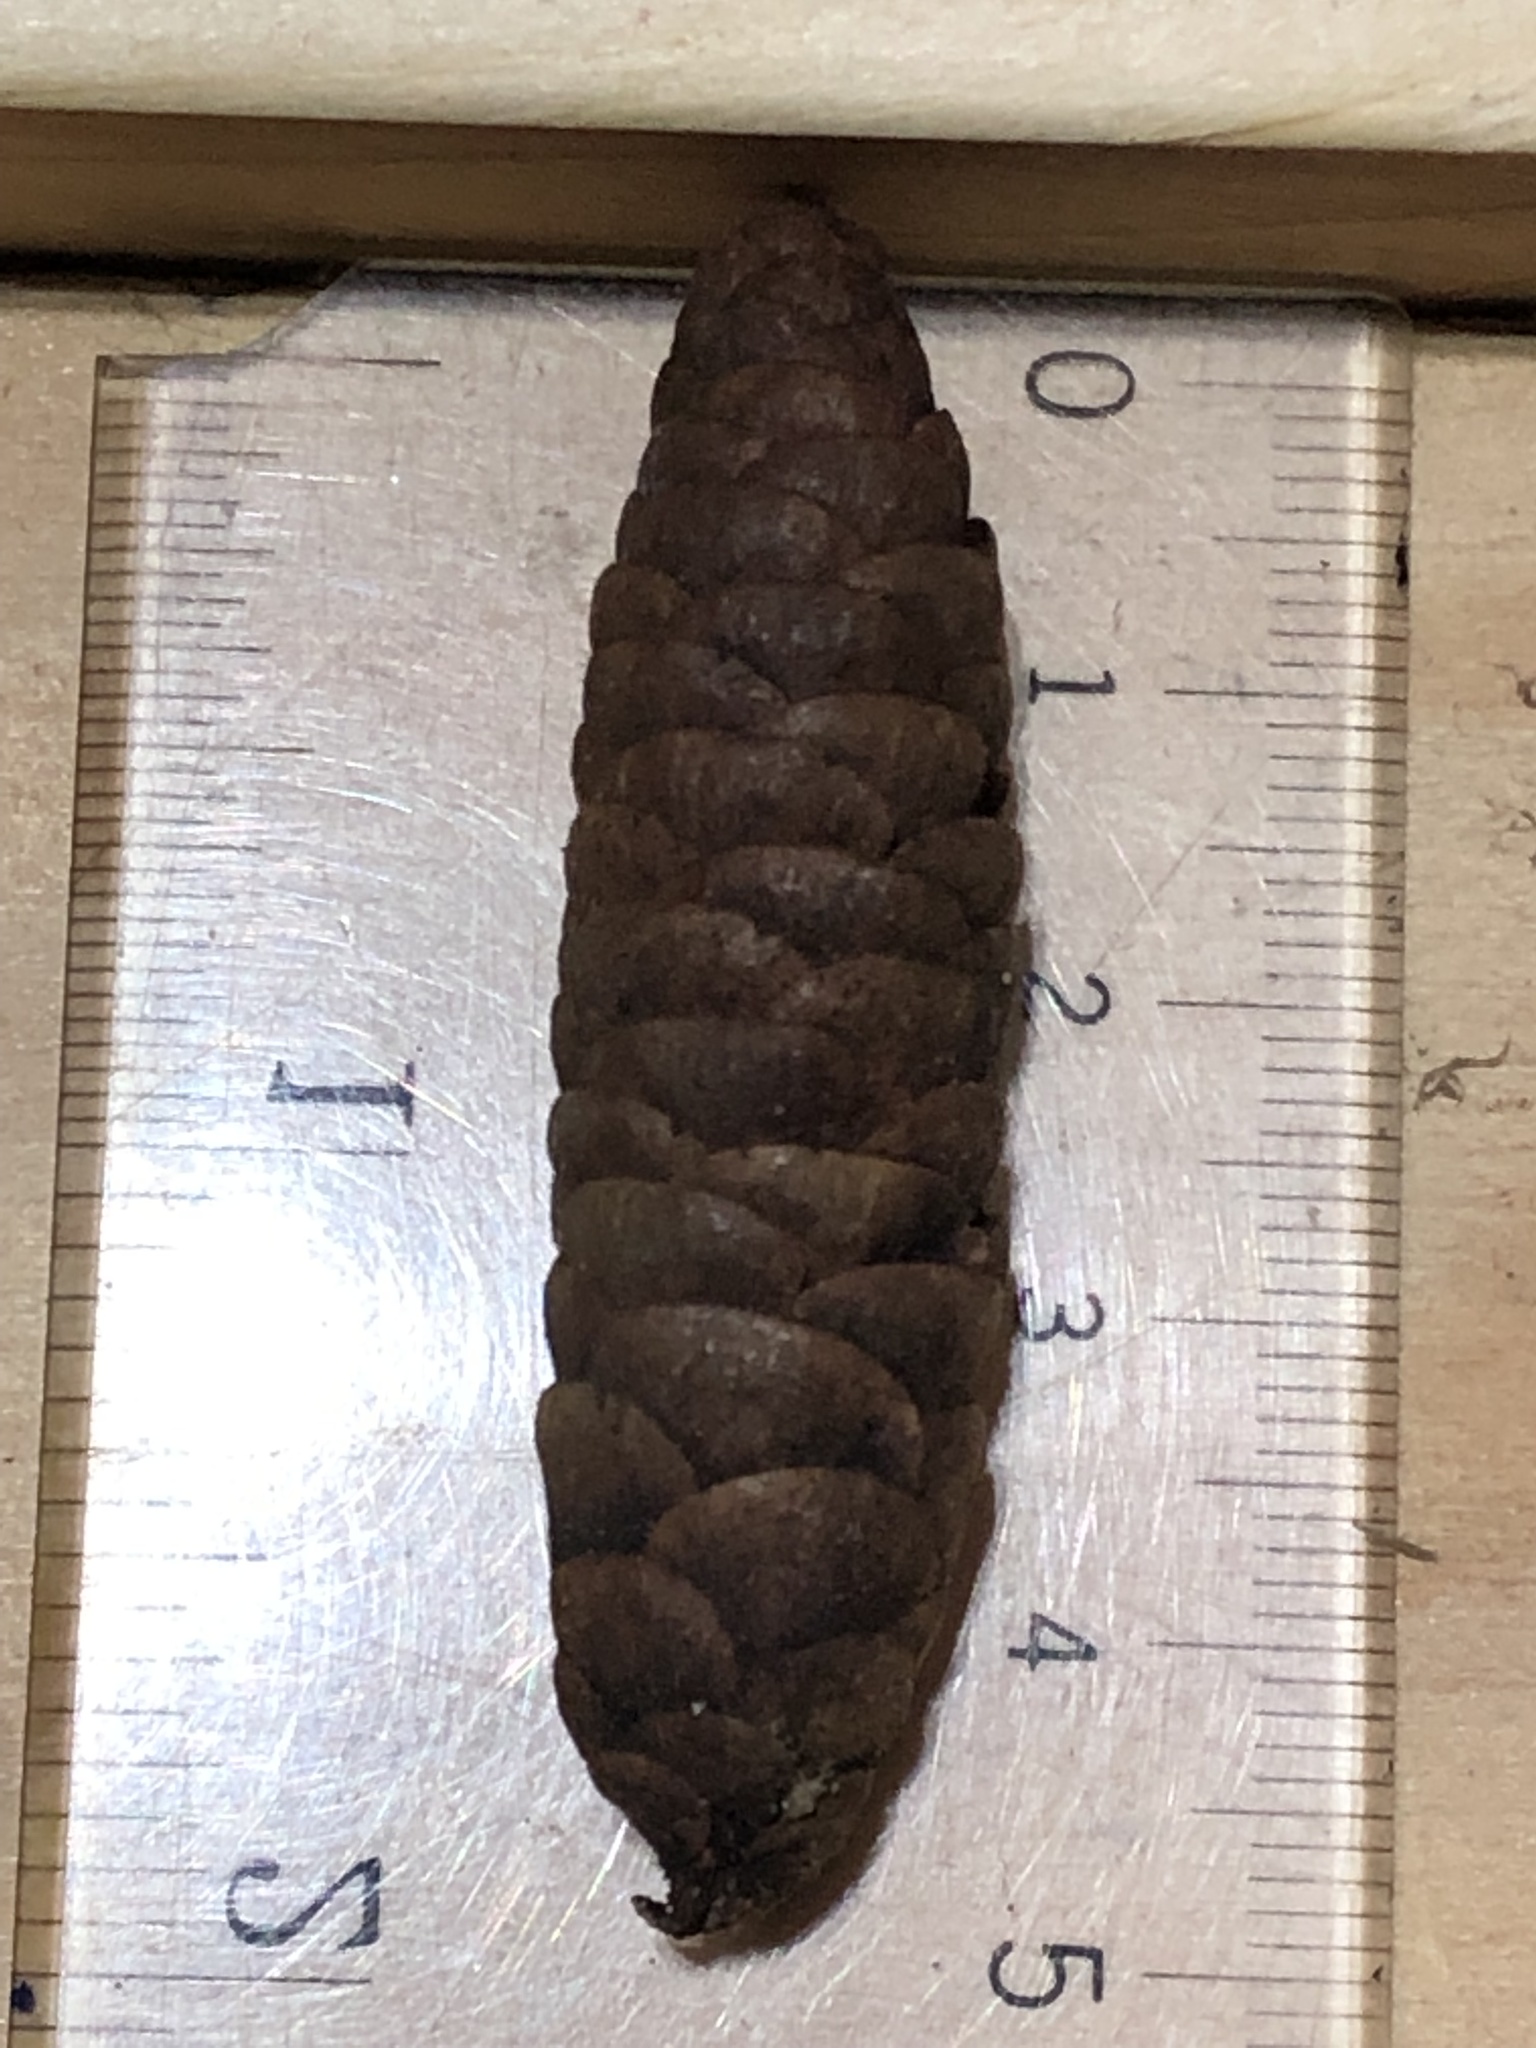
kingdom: Plantae
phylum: Tracheophyta
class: Pinopsida
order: Pinales
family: Pinaceae
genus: Picea
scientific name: Picea glauca
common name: White spruce
